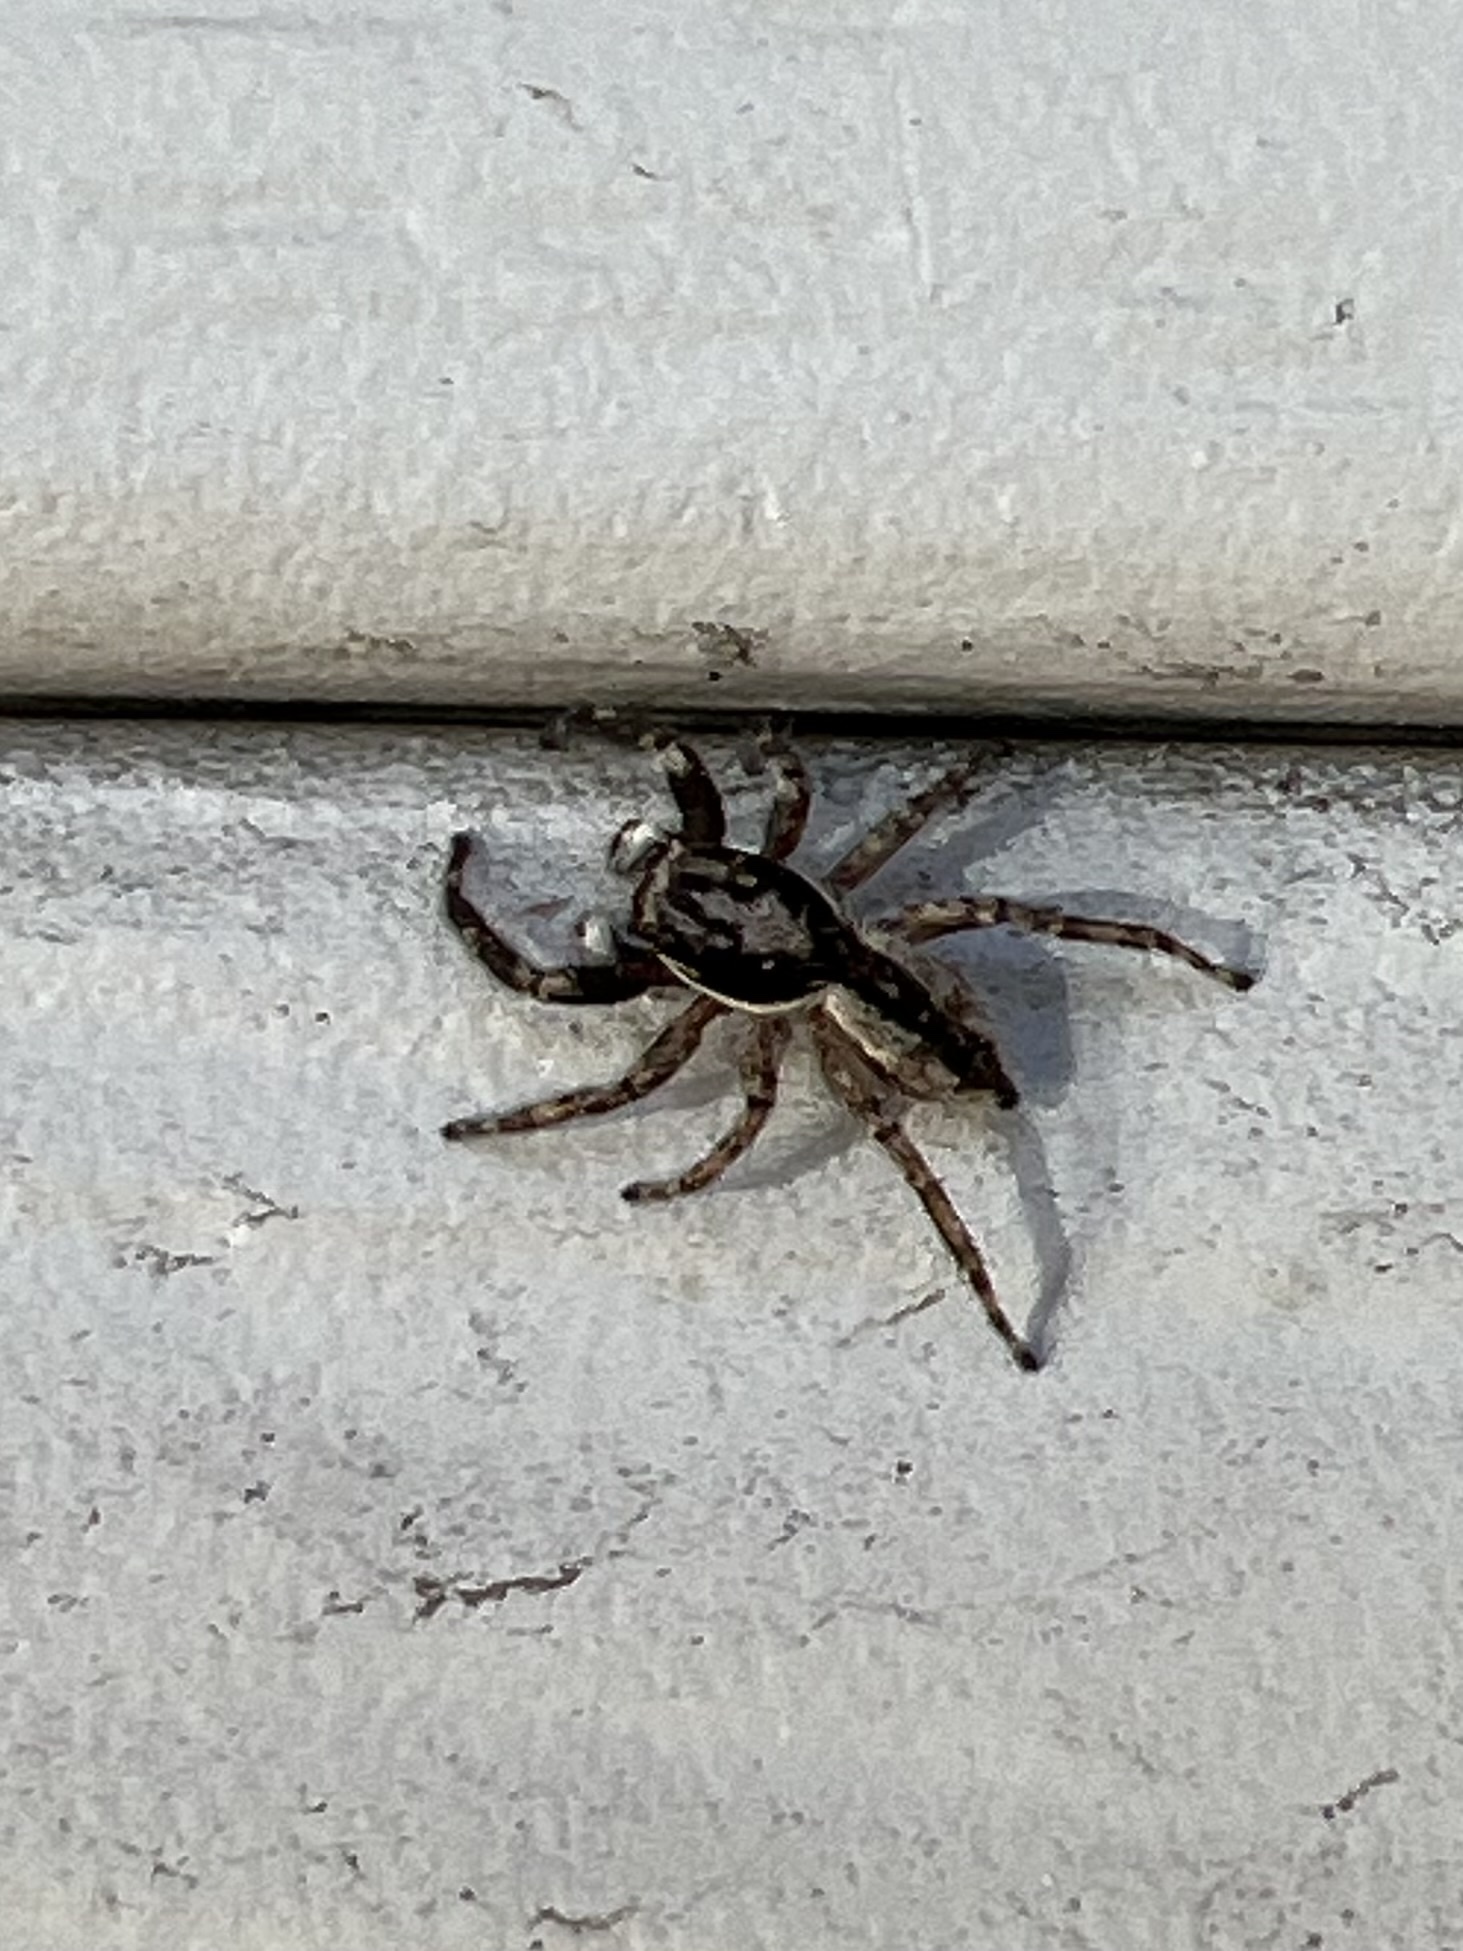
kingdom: Animalia
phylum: Arthropoda
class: Arachnida
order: Araneae
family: Salticidae
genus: Menemerus
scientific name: Menemerus bivittatus
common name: Gray wall jumper
